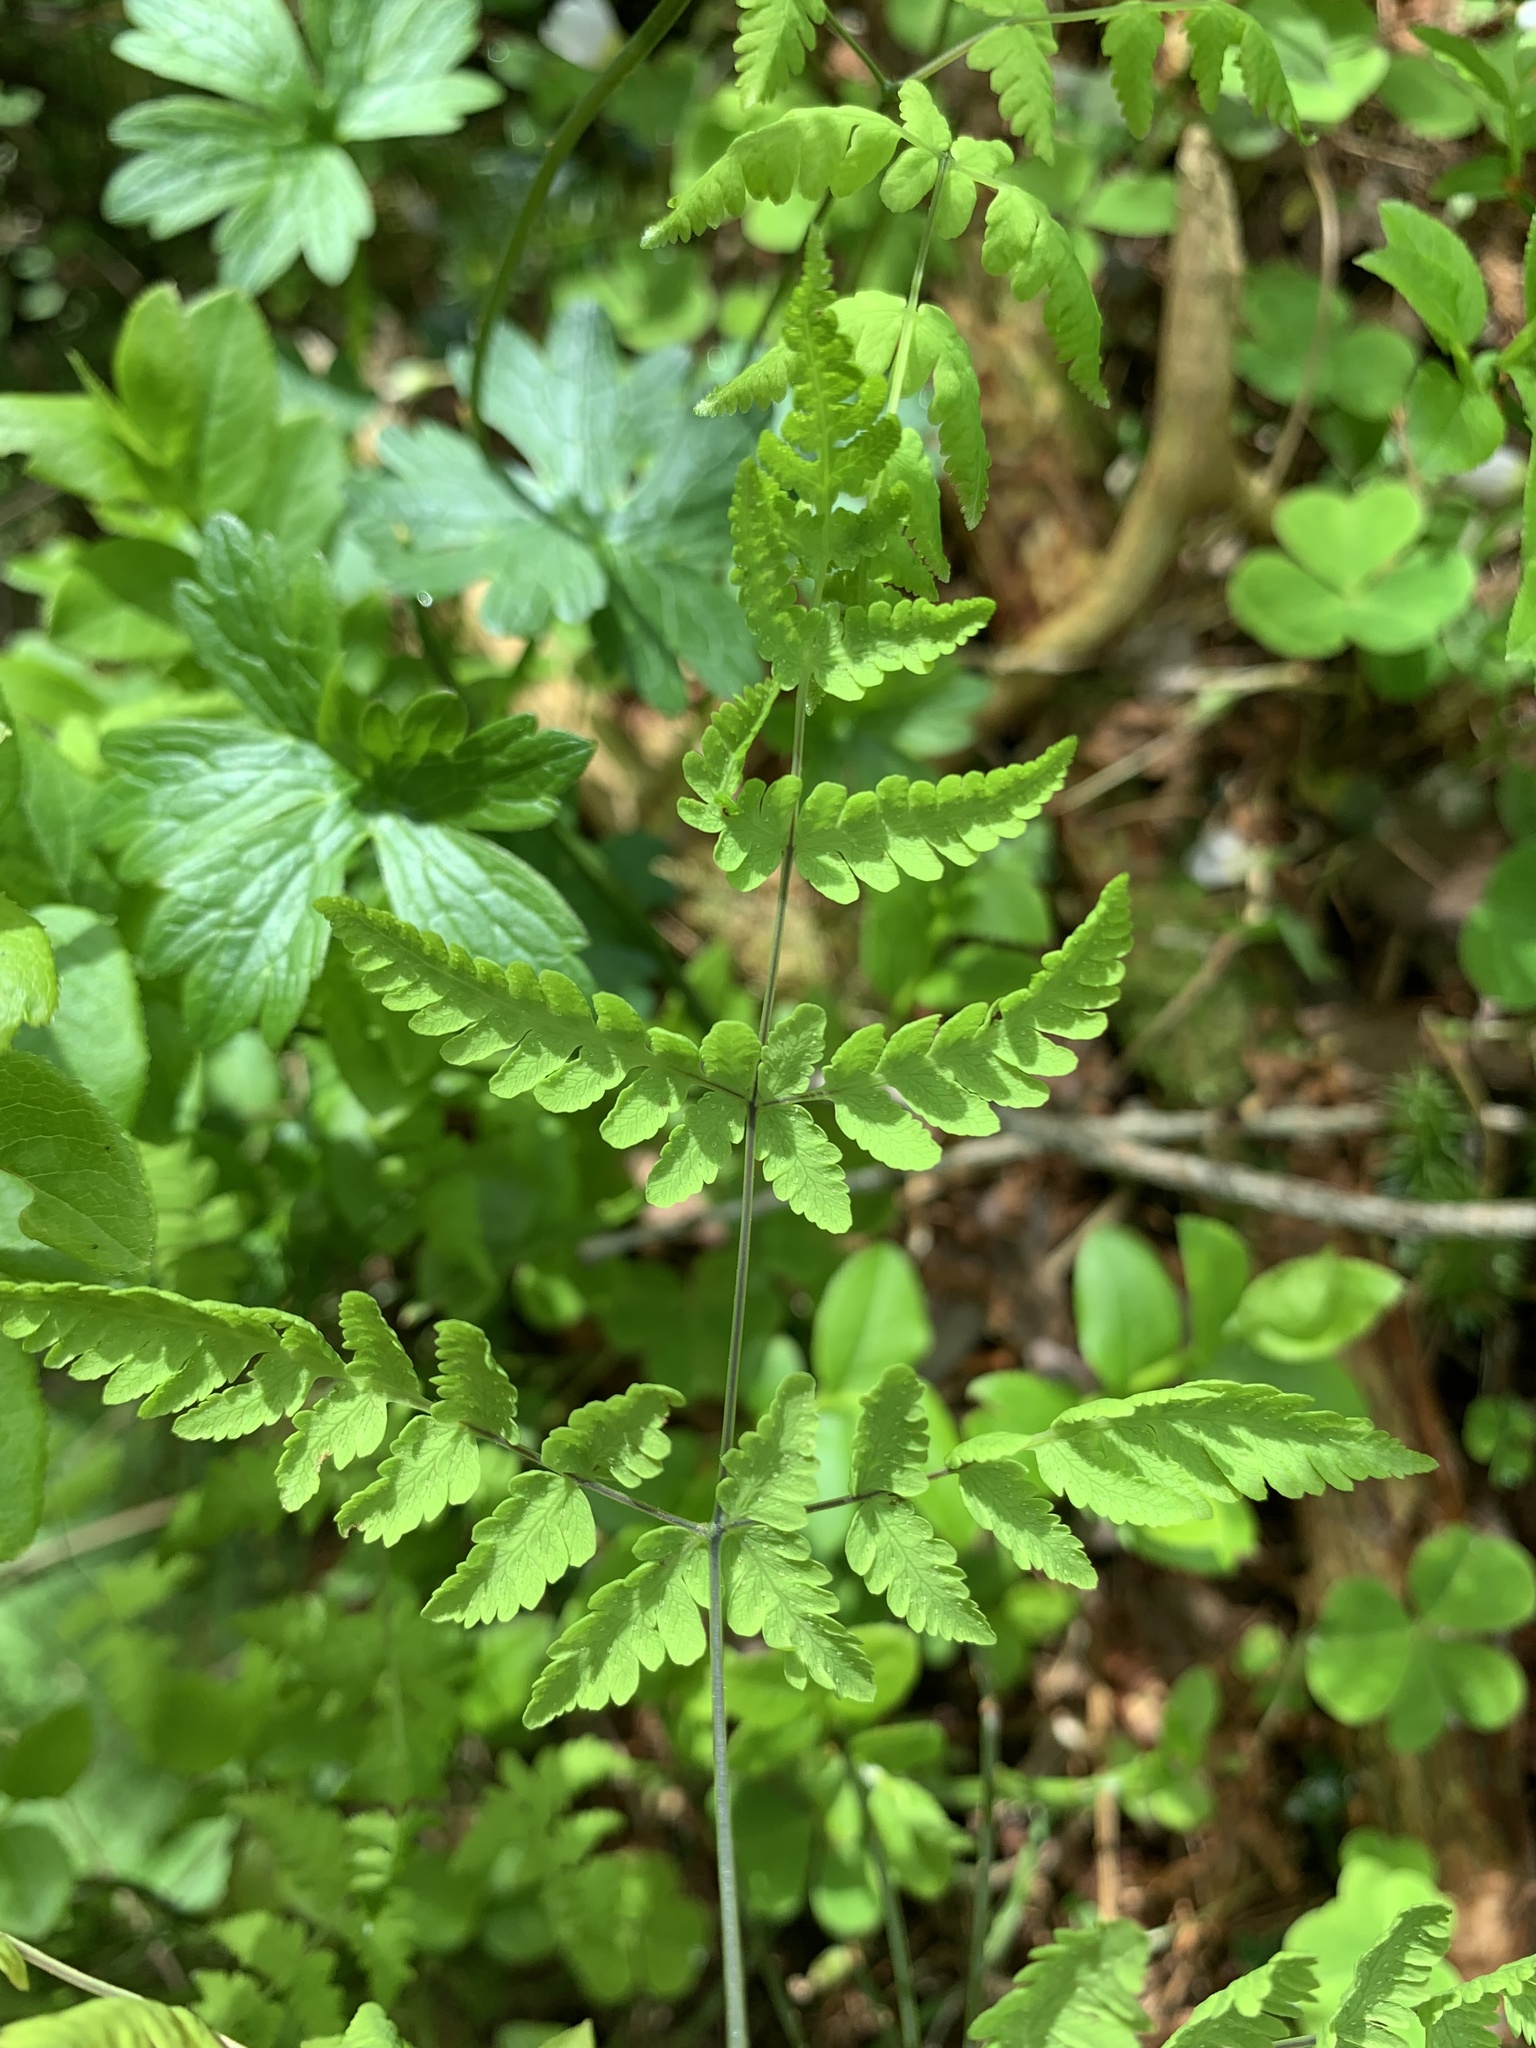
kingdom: Plantae
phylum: Tracheophyta
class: Polypodiopsida
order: Polypodiales
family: Cystopteridaceae
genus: Gymnocarpium
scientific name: Gymnocarpium dryopteris
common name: Oak fern
